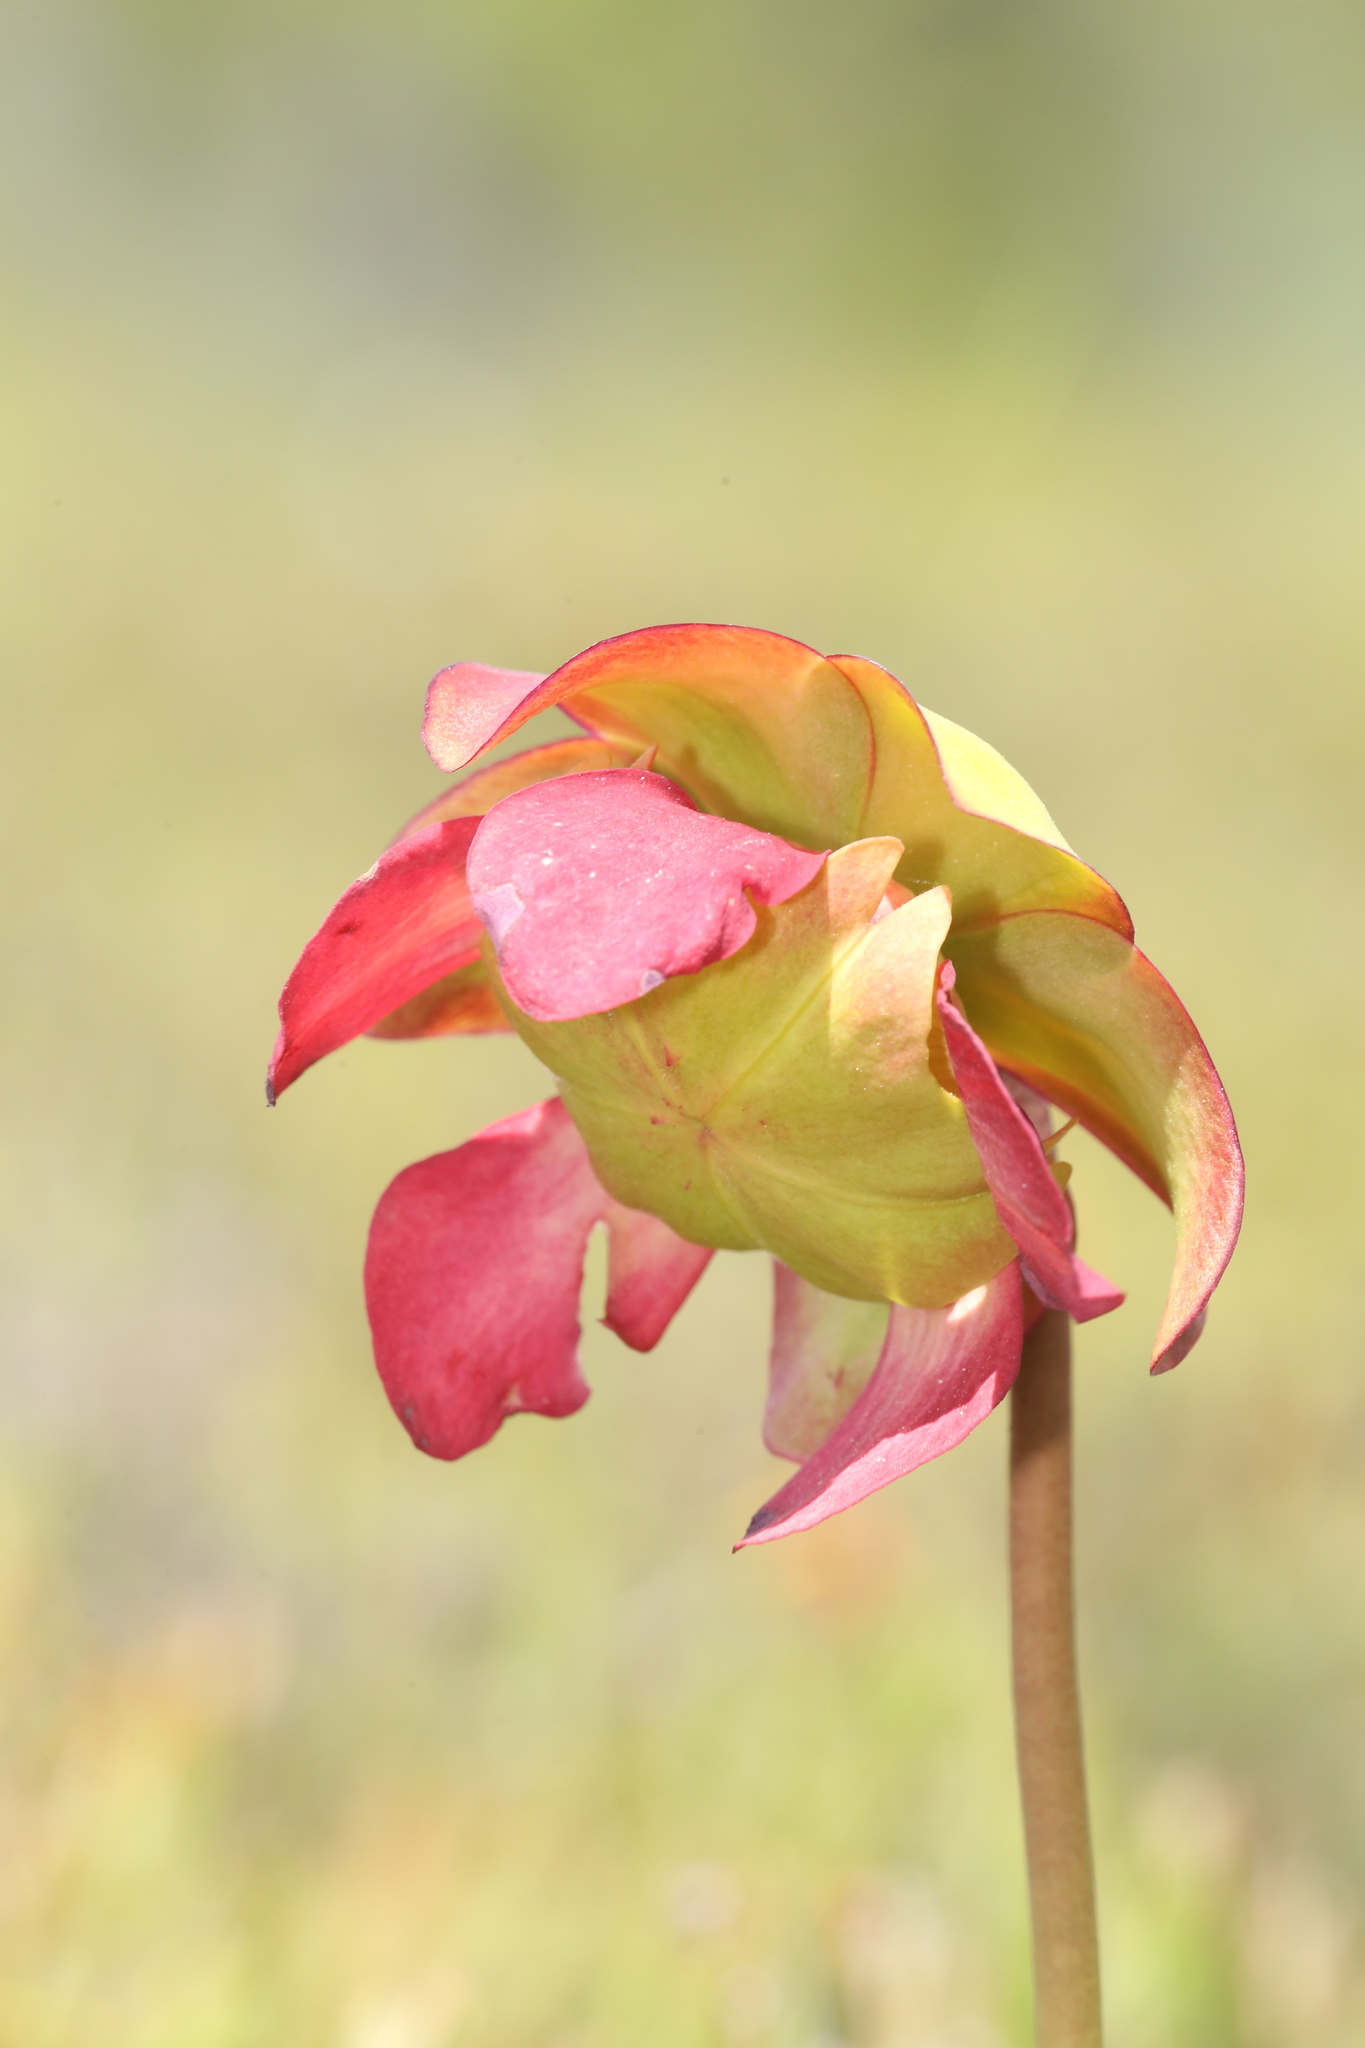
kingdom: Plantae
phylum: Tracheophyta
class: Magnoliopsida
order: Ericales
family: Sarraceniaceae
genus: Sarracenia
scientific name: Sarracenia purpurea
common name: Pitcherplant
